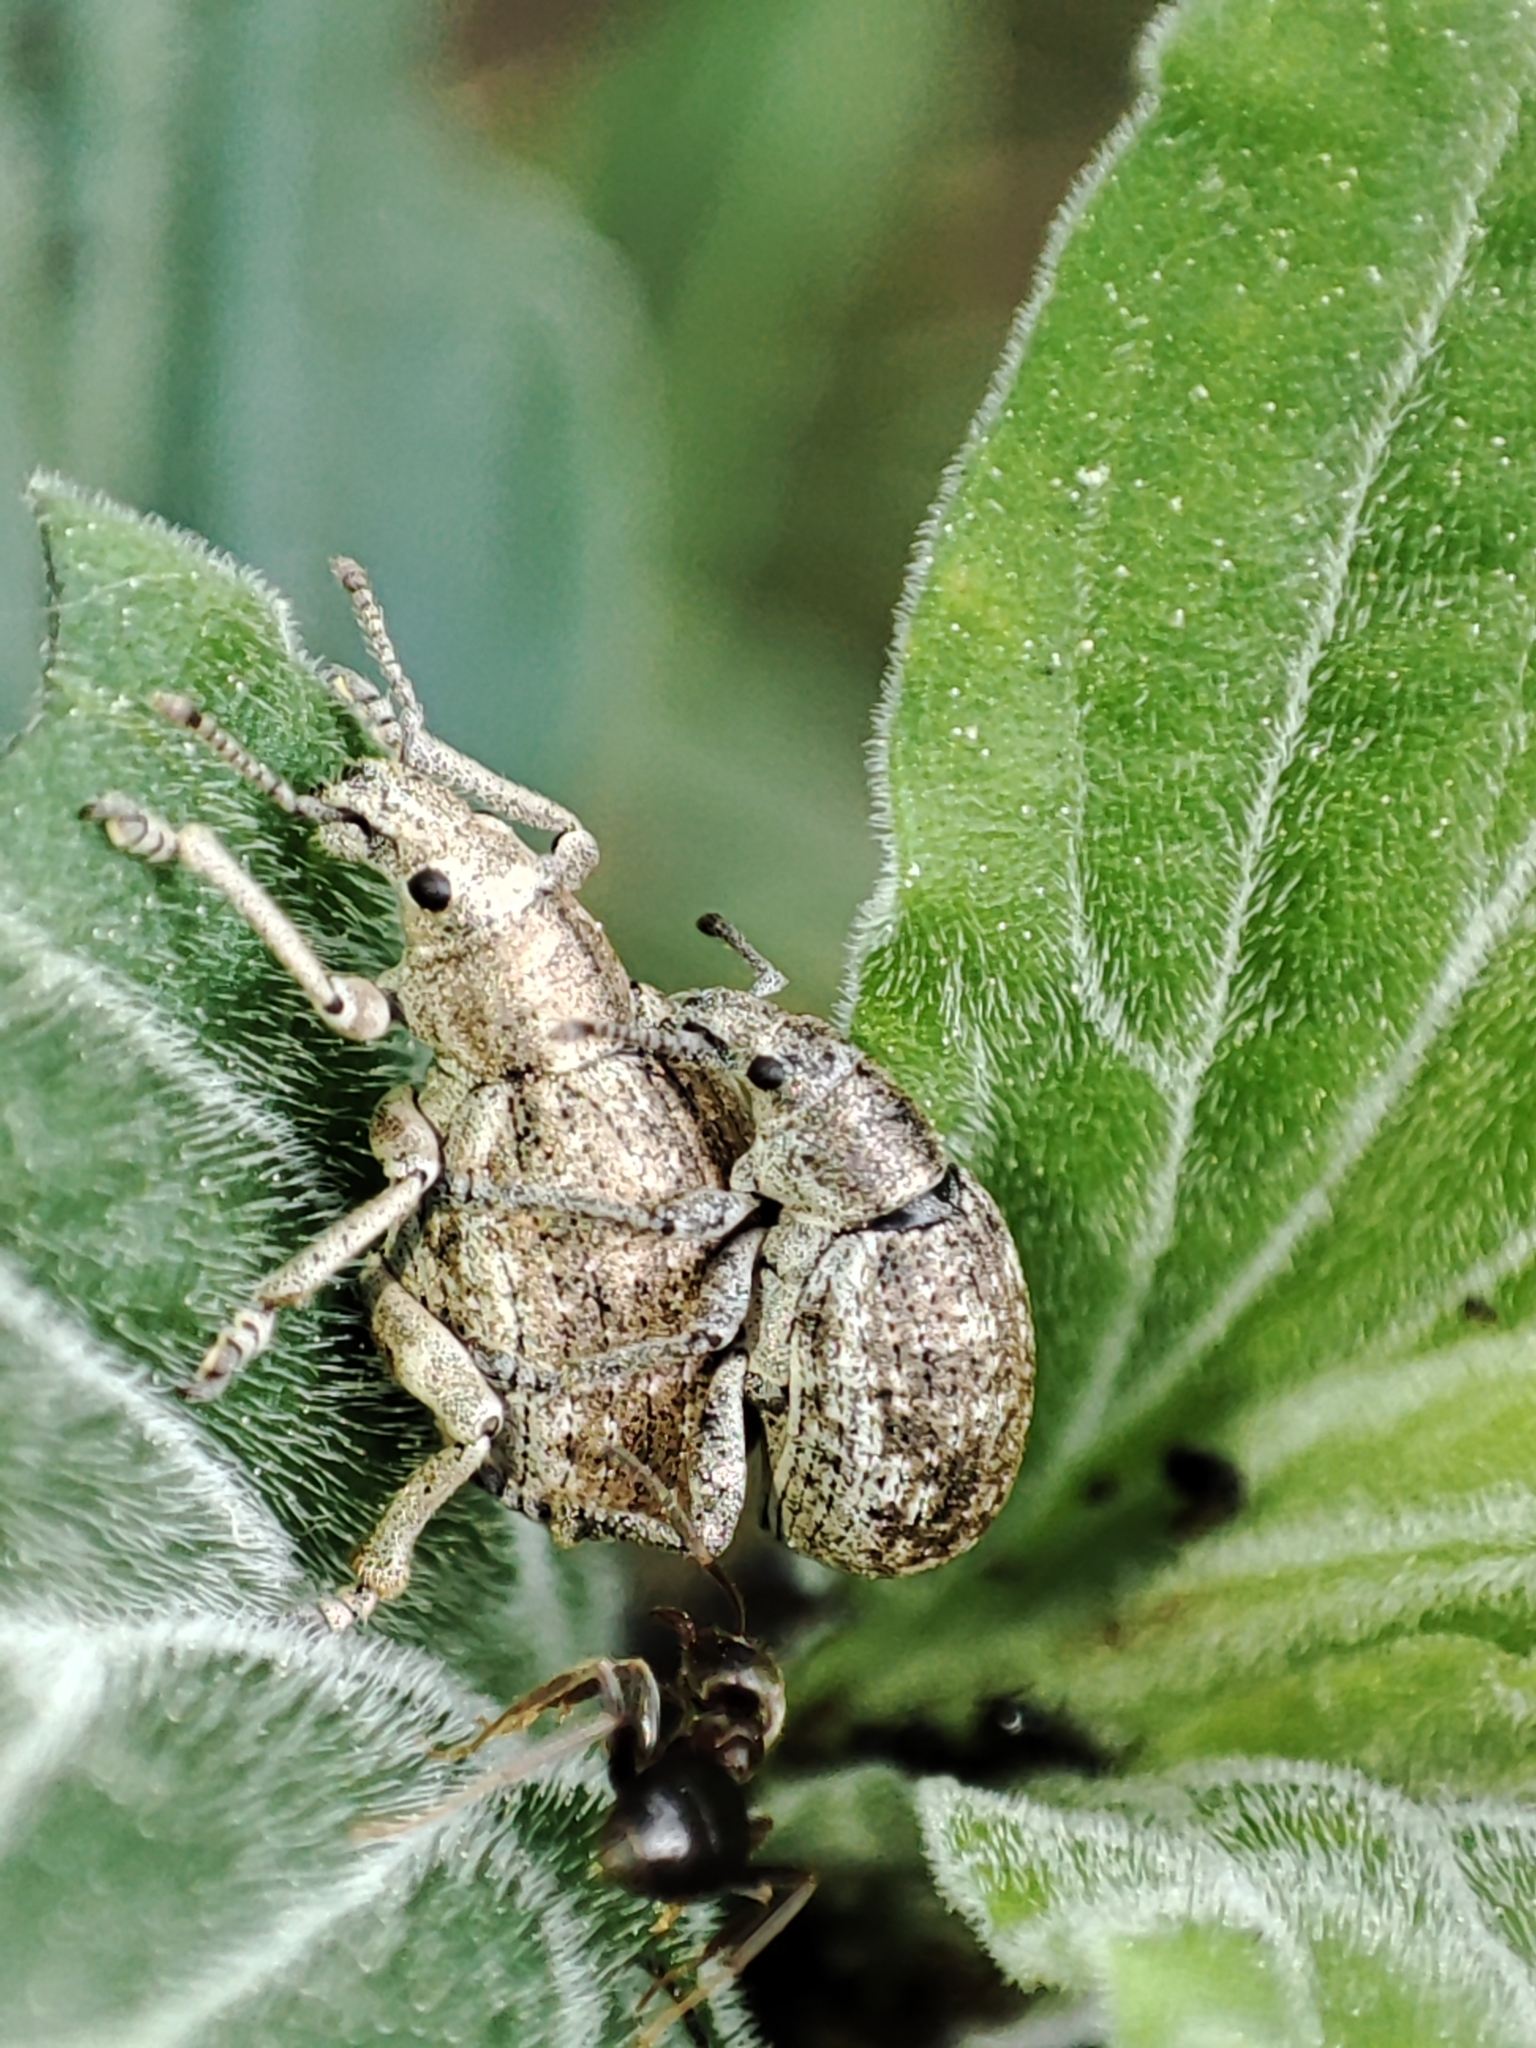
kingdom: Animalia
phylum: Arthropoda
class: Insecta
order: Coleoptera
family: Curculionidae
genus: Attactagenus
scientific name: Attactagenus albinus
